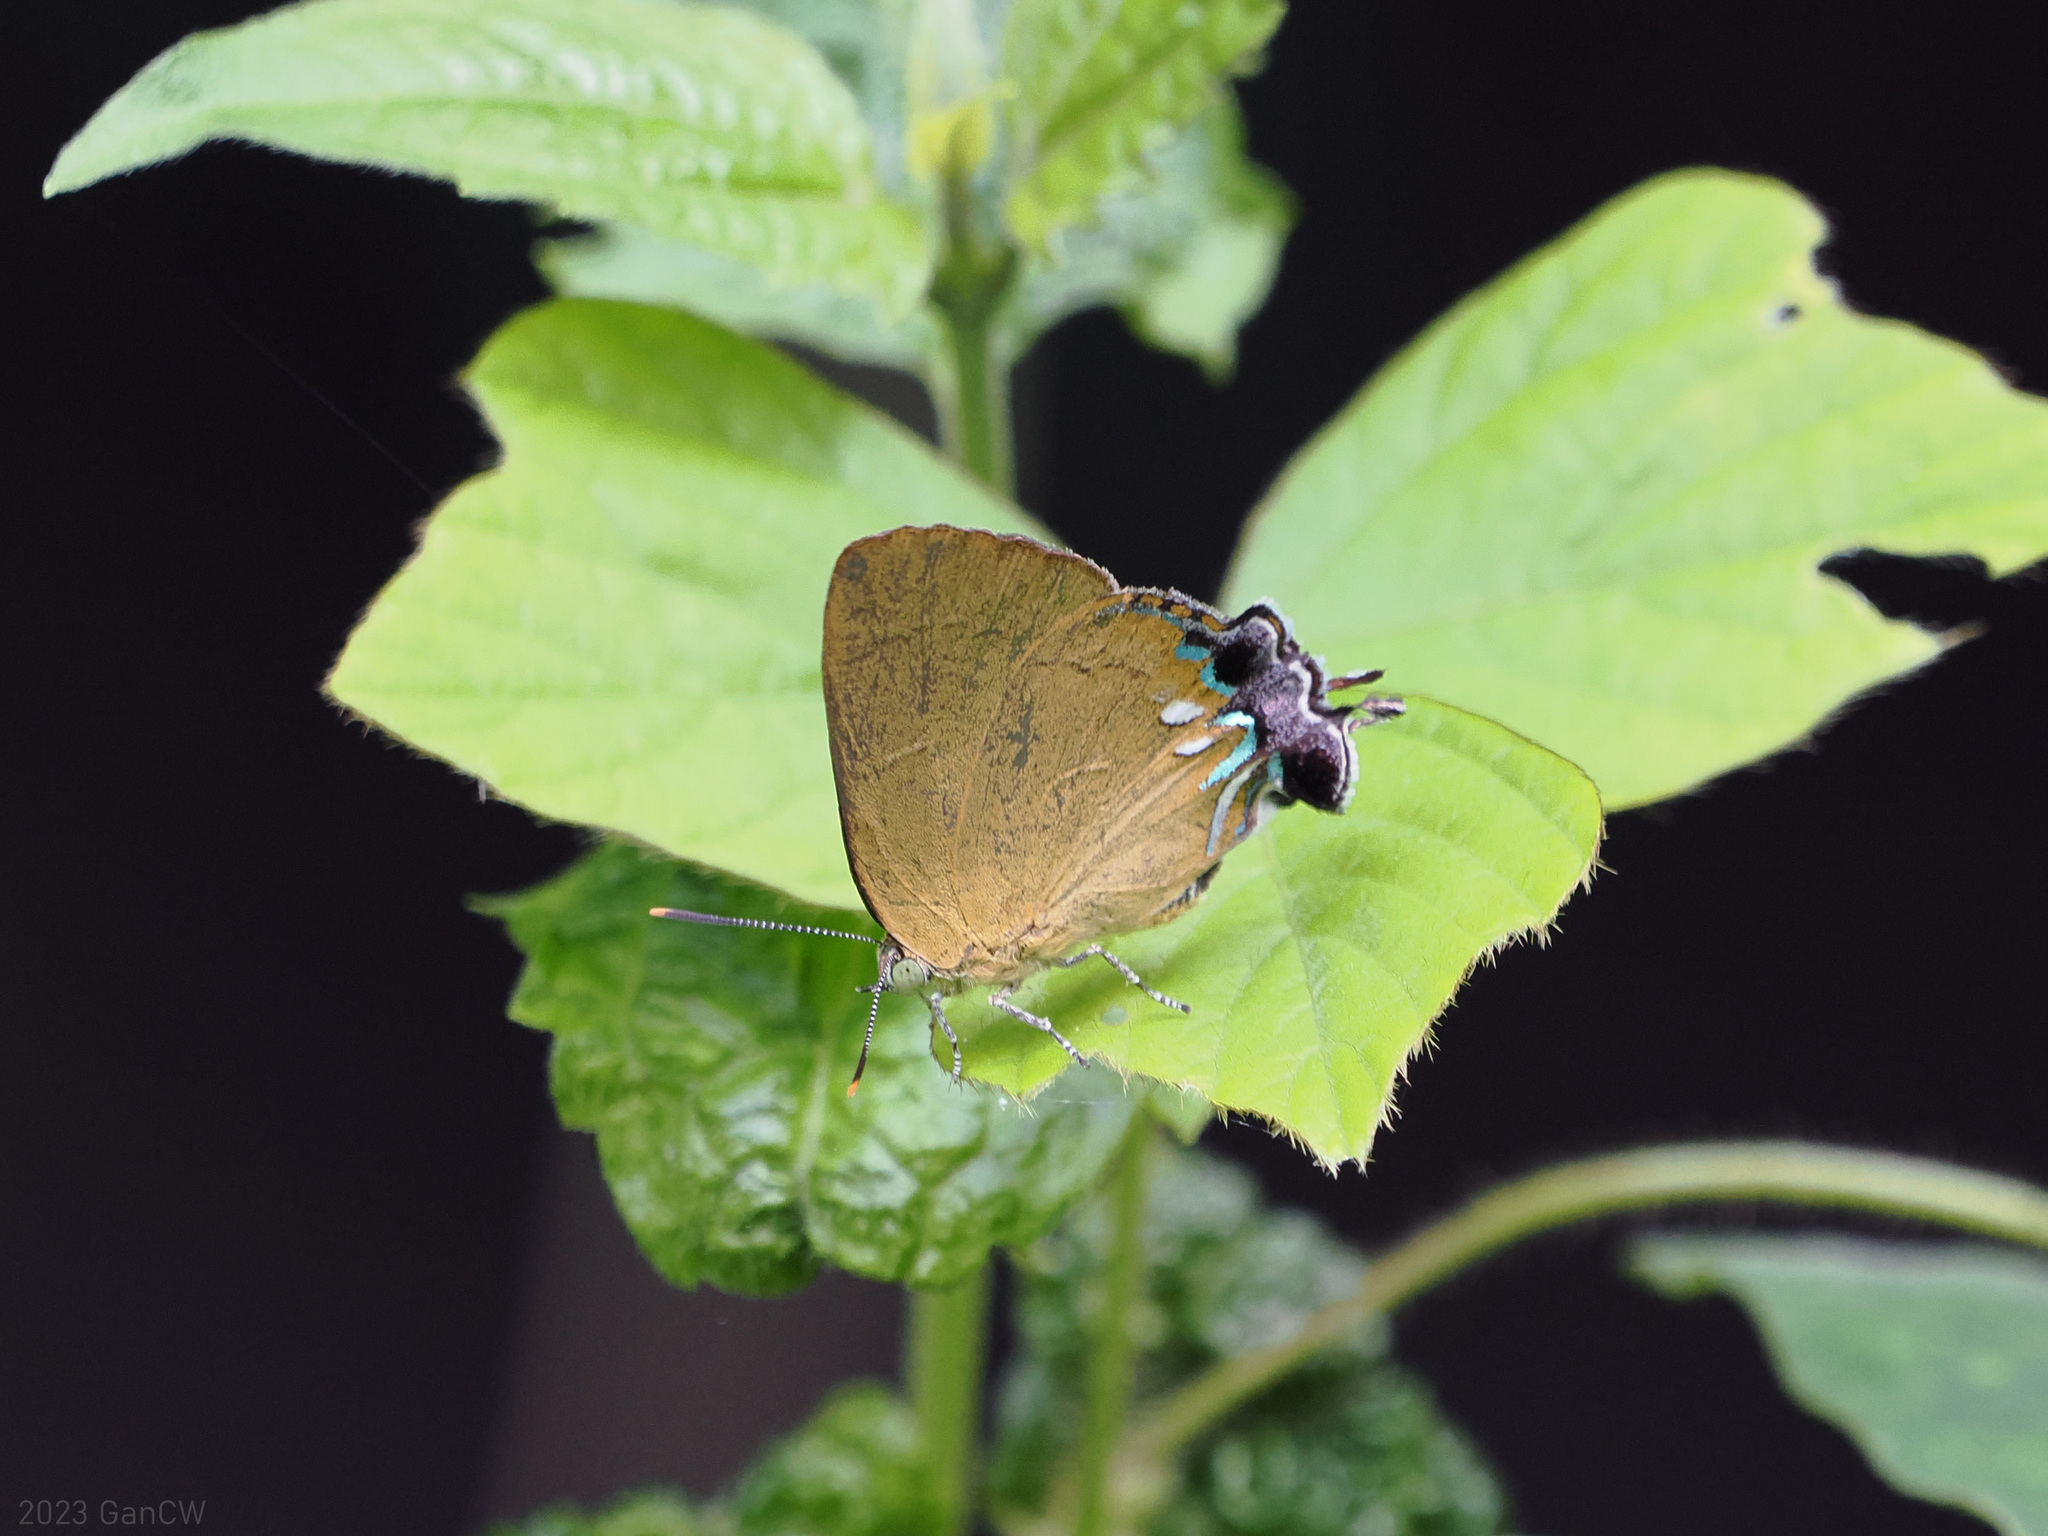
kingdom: Animalia
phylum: Arthropoda
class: Insecta
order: Lepidoptera
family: Lycaenidae
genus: Remelana
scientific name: Remelana jangala
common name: Chocolate royal
